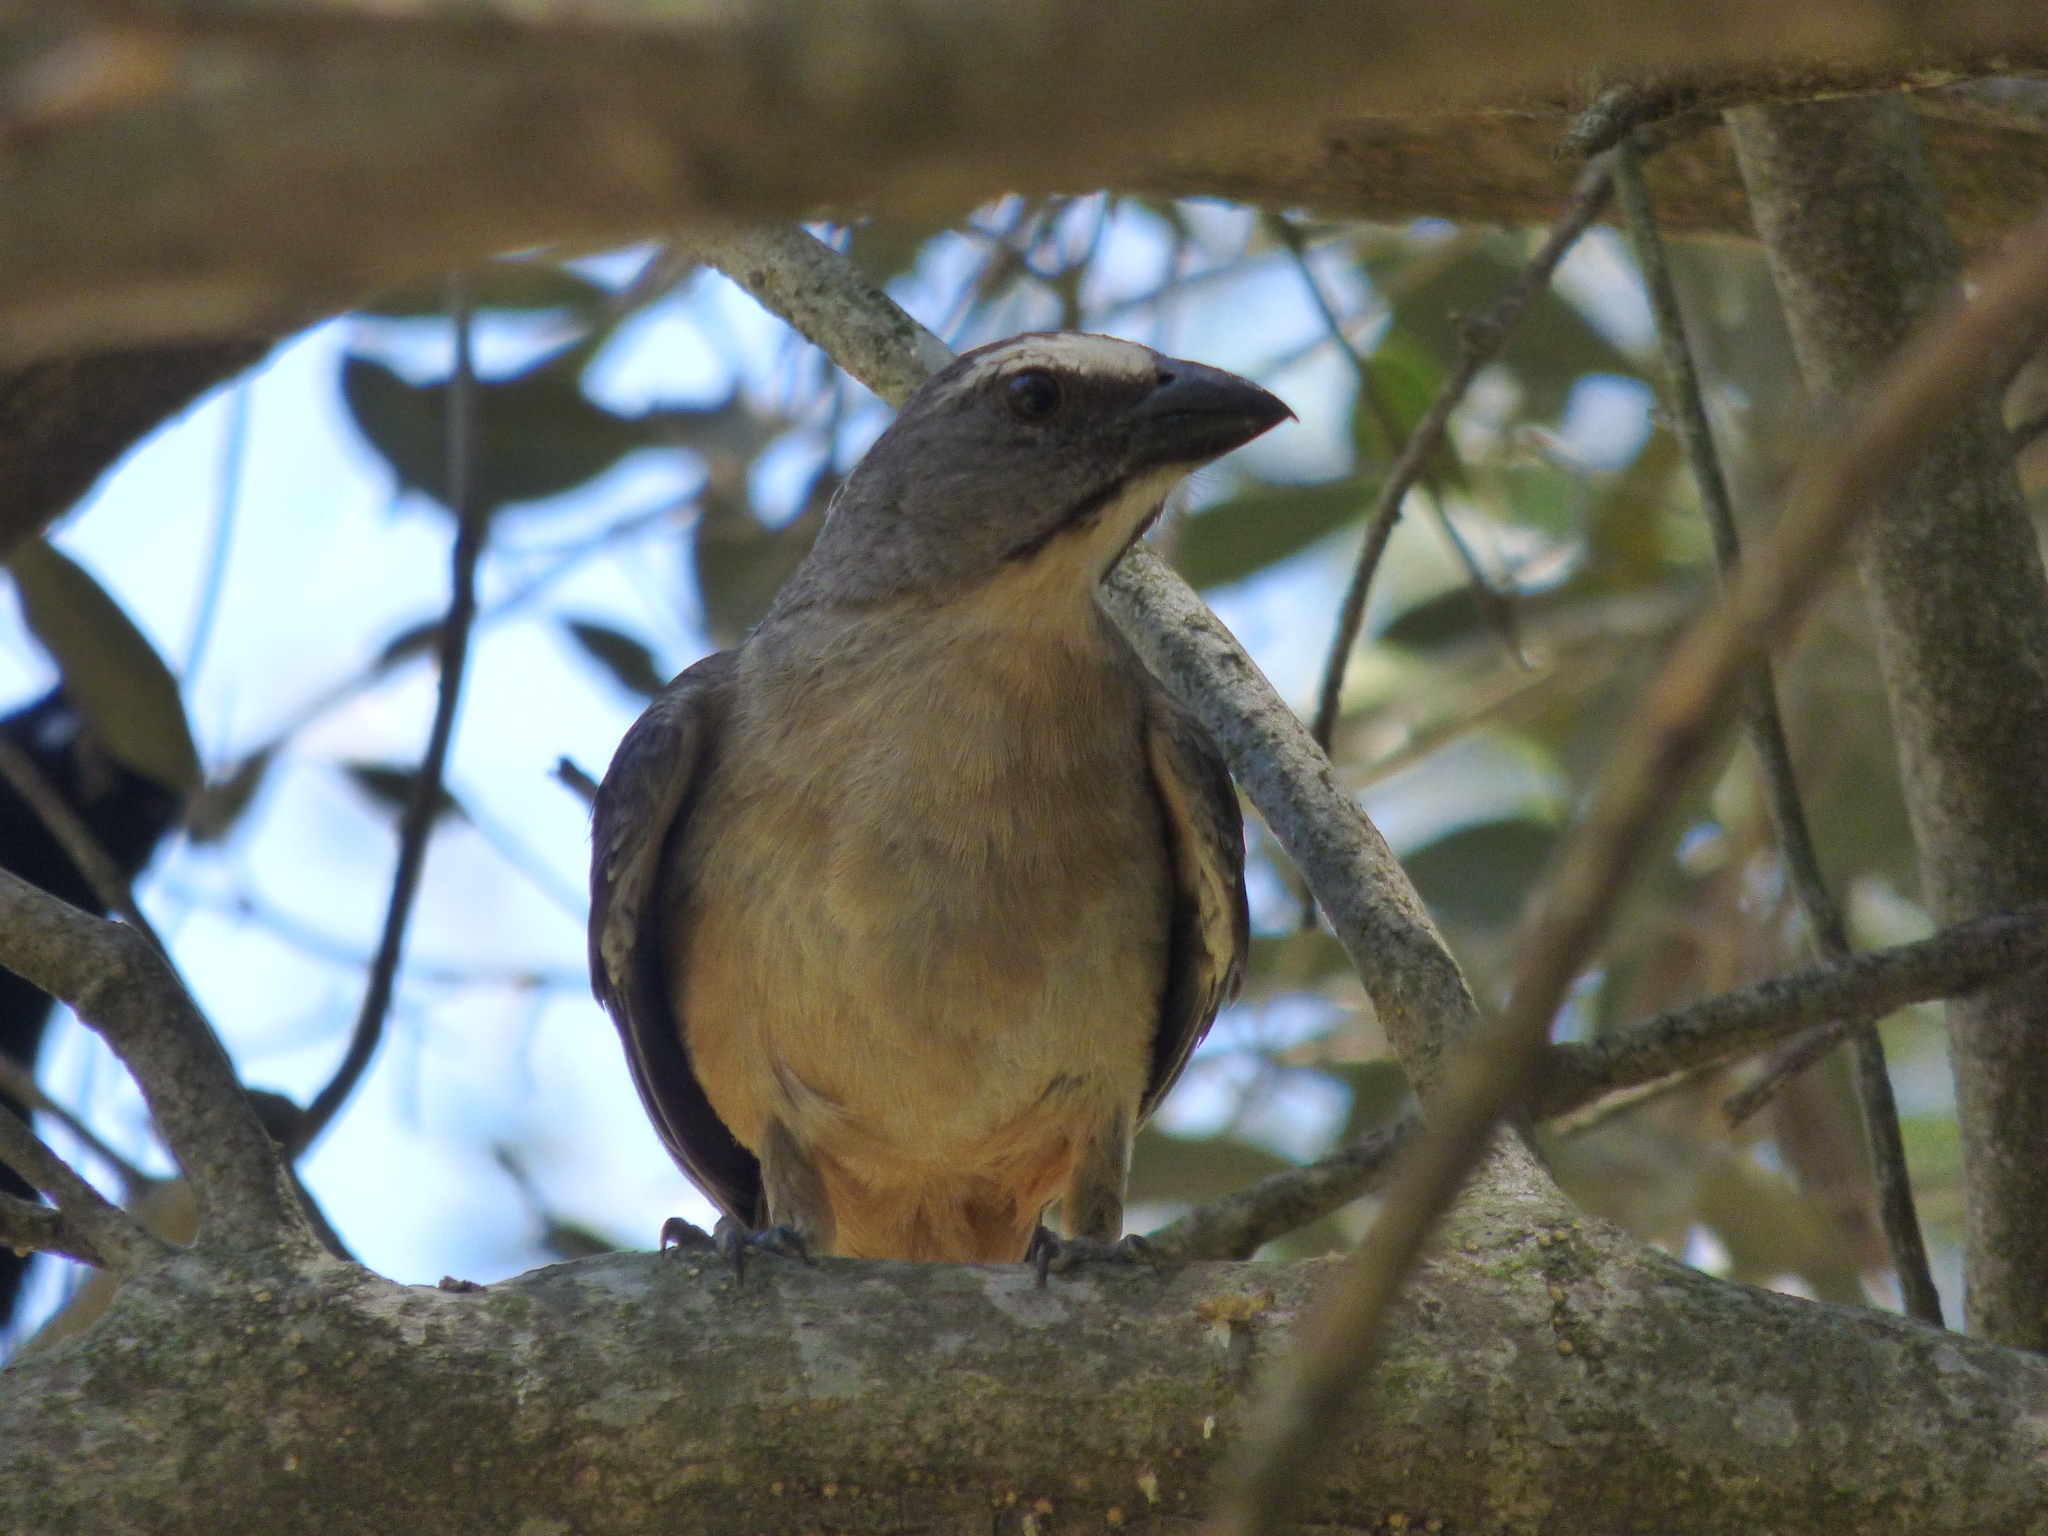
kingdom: Animalia
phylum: Chordata
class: Aves
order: Passeriformes
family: Thraupidae
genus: Saltator
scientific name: Saltator coerulescens
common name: Grayish saltator
